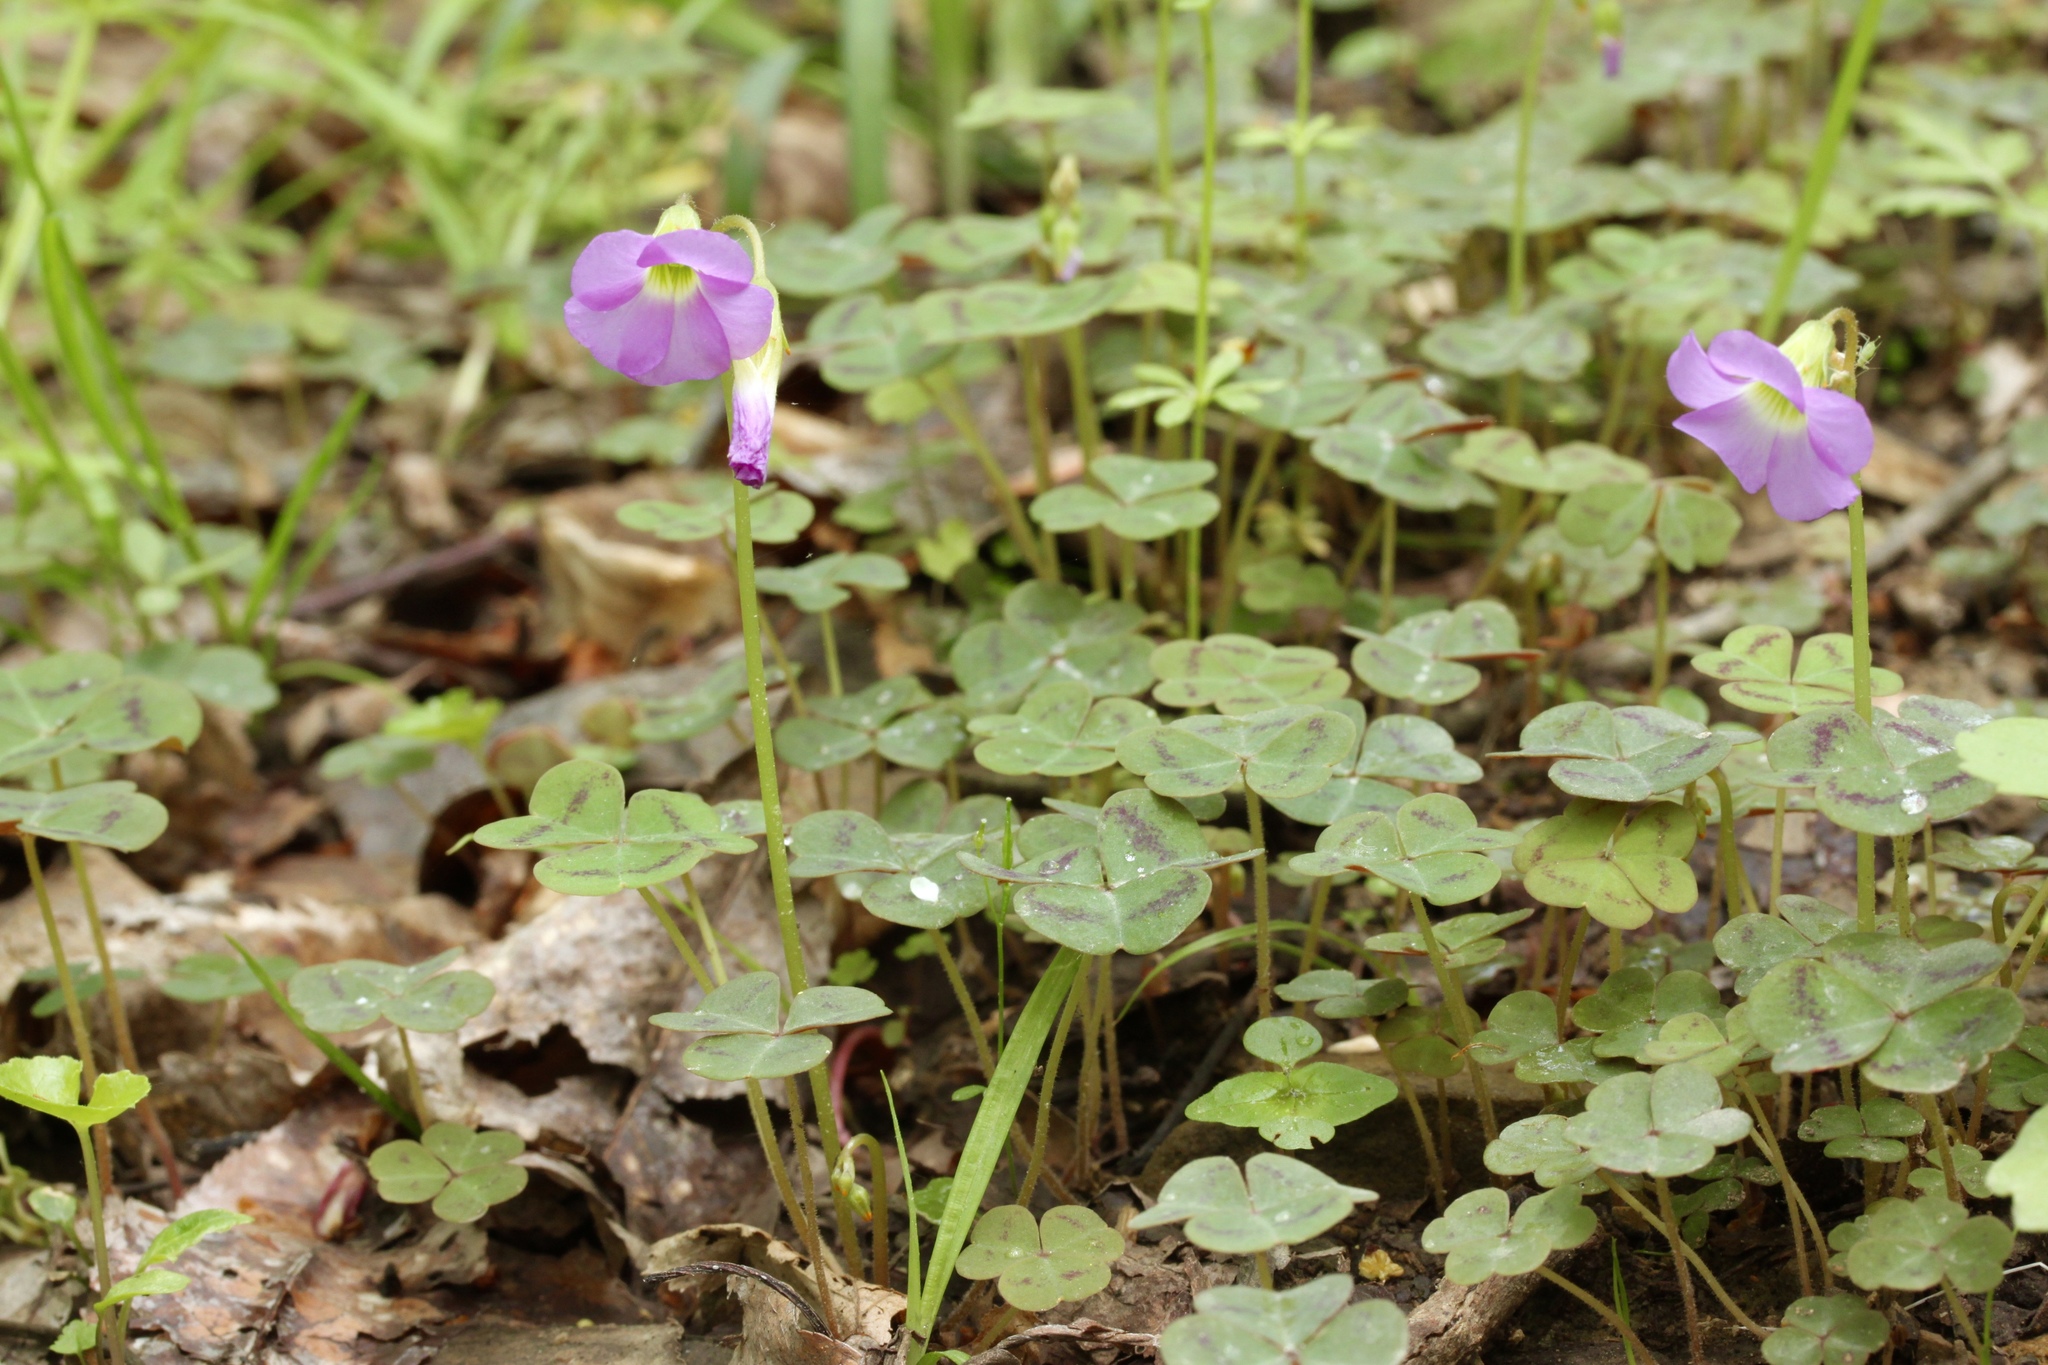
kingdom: Plantae
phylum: Tracheophyta
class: Magnoliopsida
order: Oxalidales
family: Oxalidaceae
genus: Oxalis
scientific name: Oxalis violacea
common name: Violet wood-sorrel
